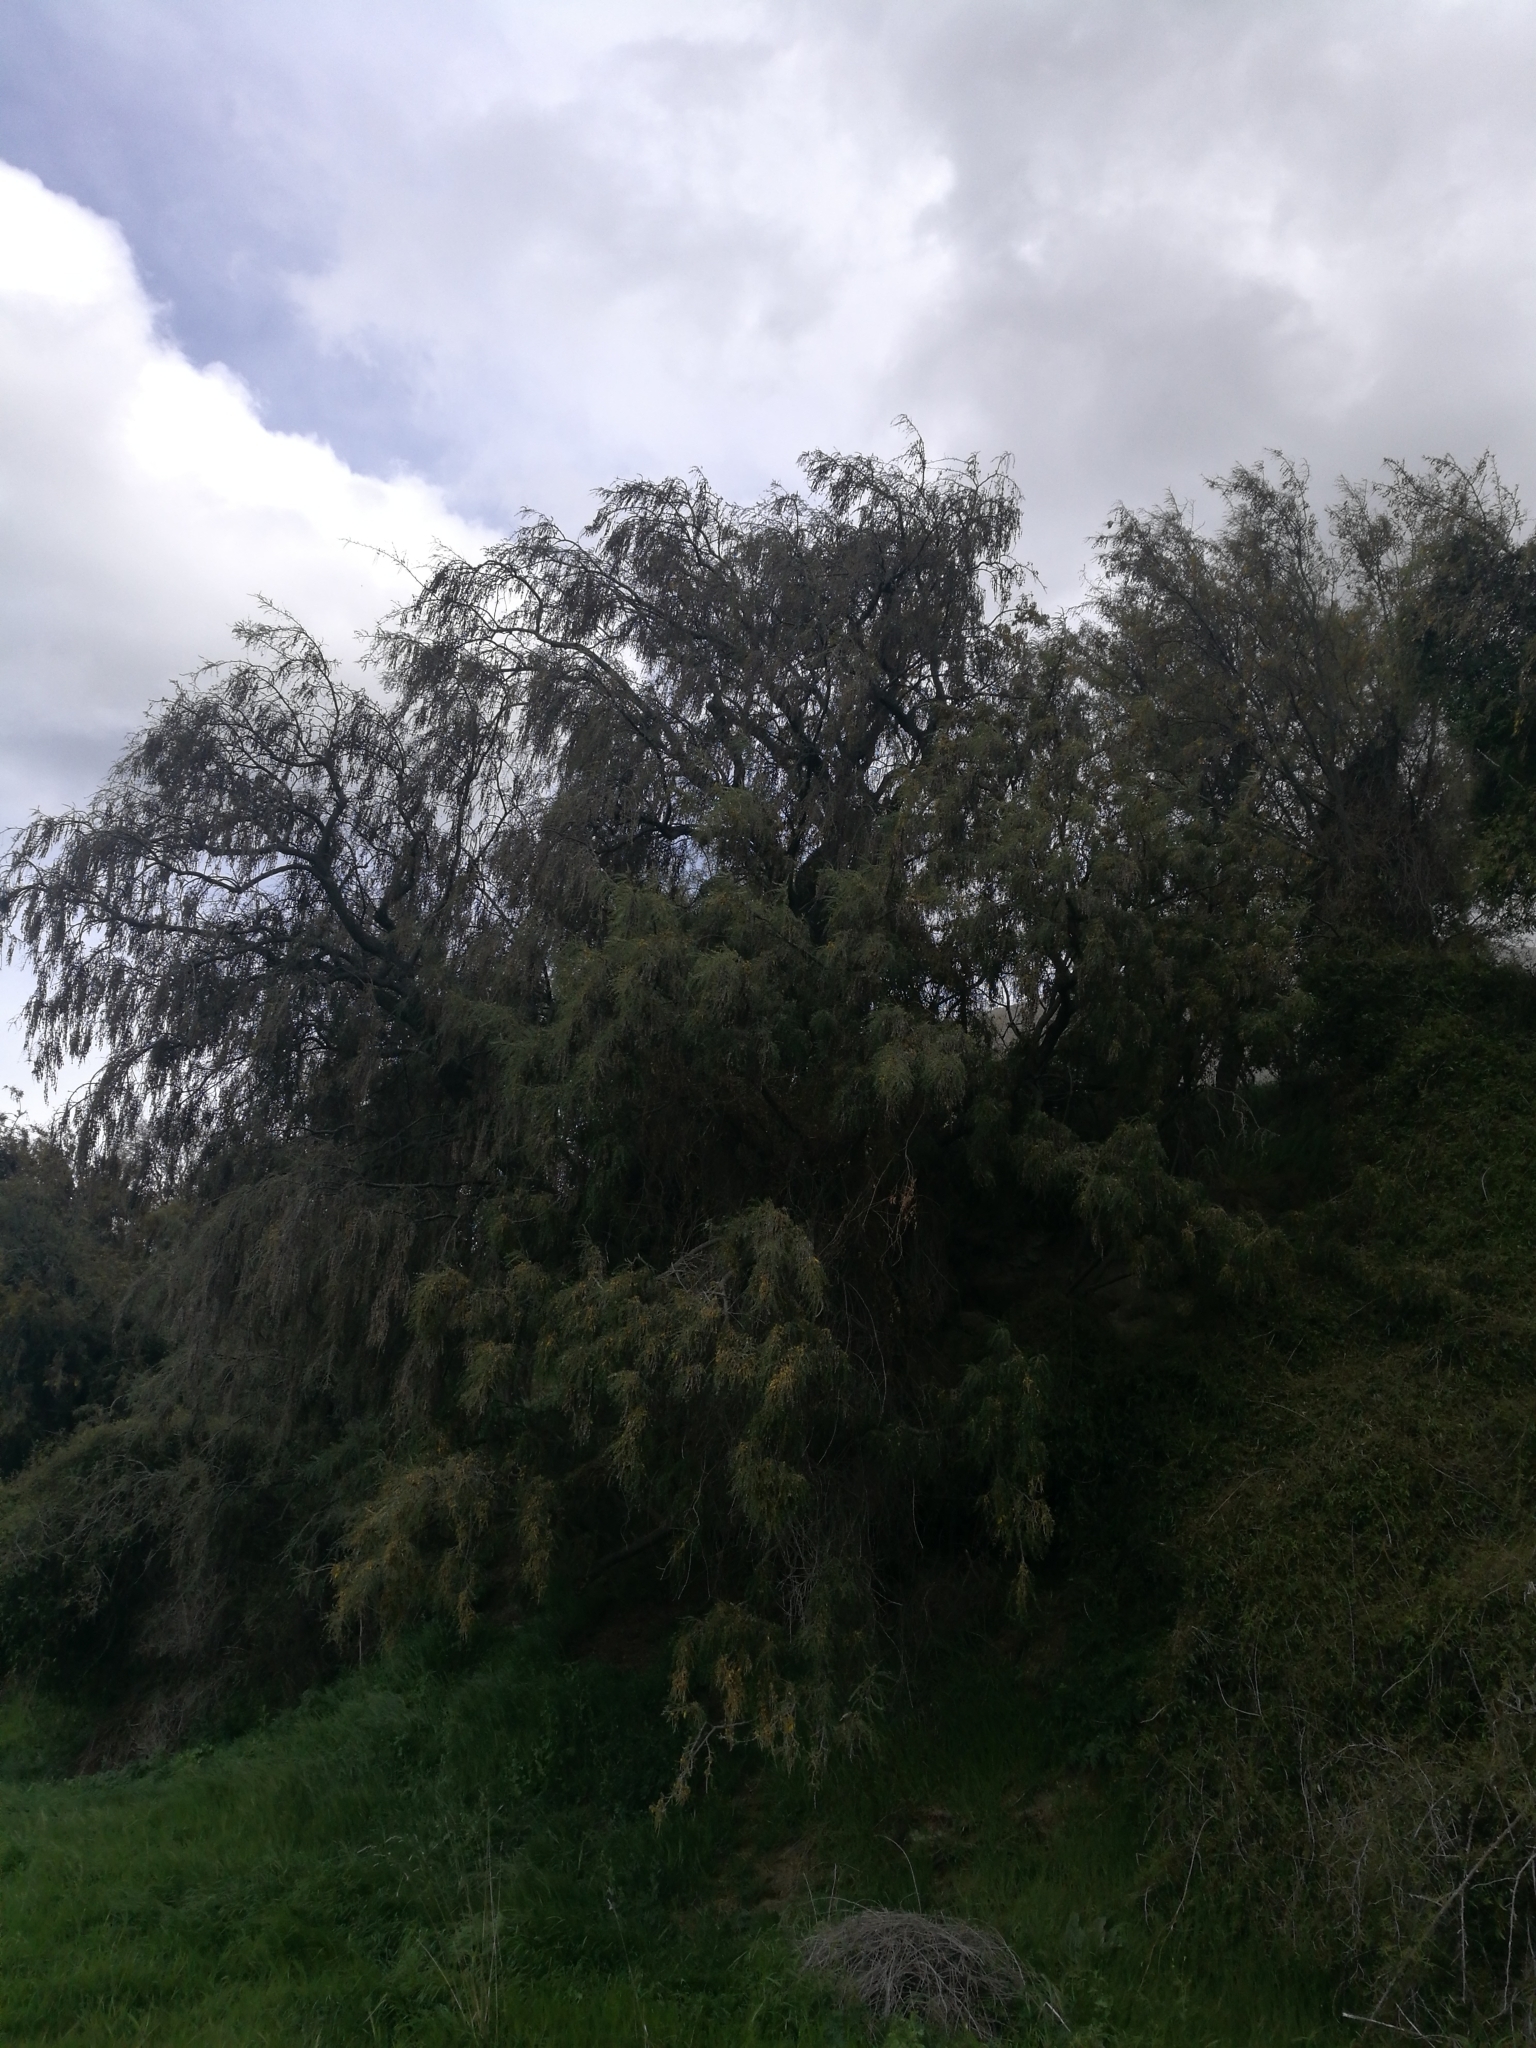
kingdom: Plantae
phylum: Tracheophyta
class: Magnoliopsida
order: Fabales
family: Fabaceae
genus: Sophora
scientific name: Sophora microphylla
